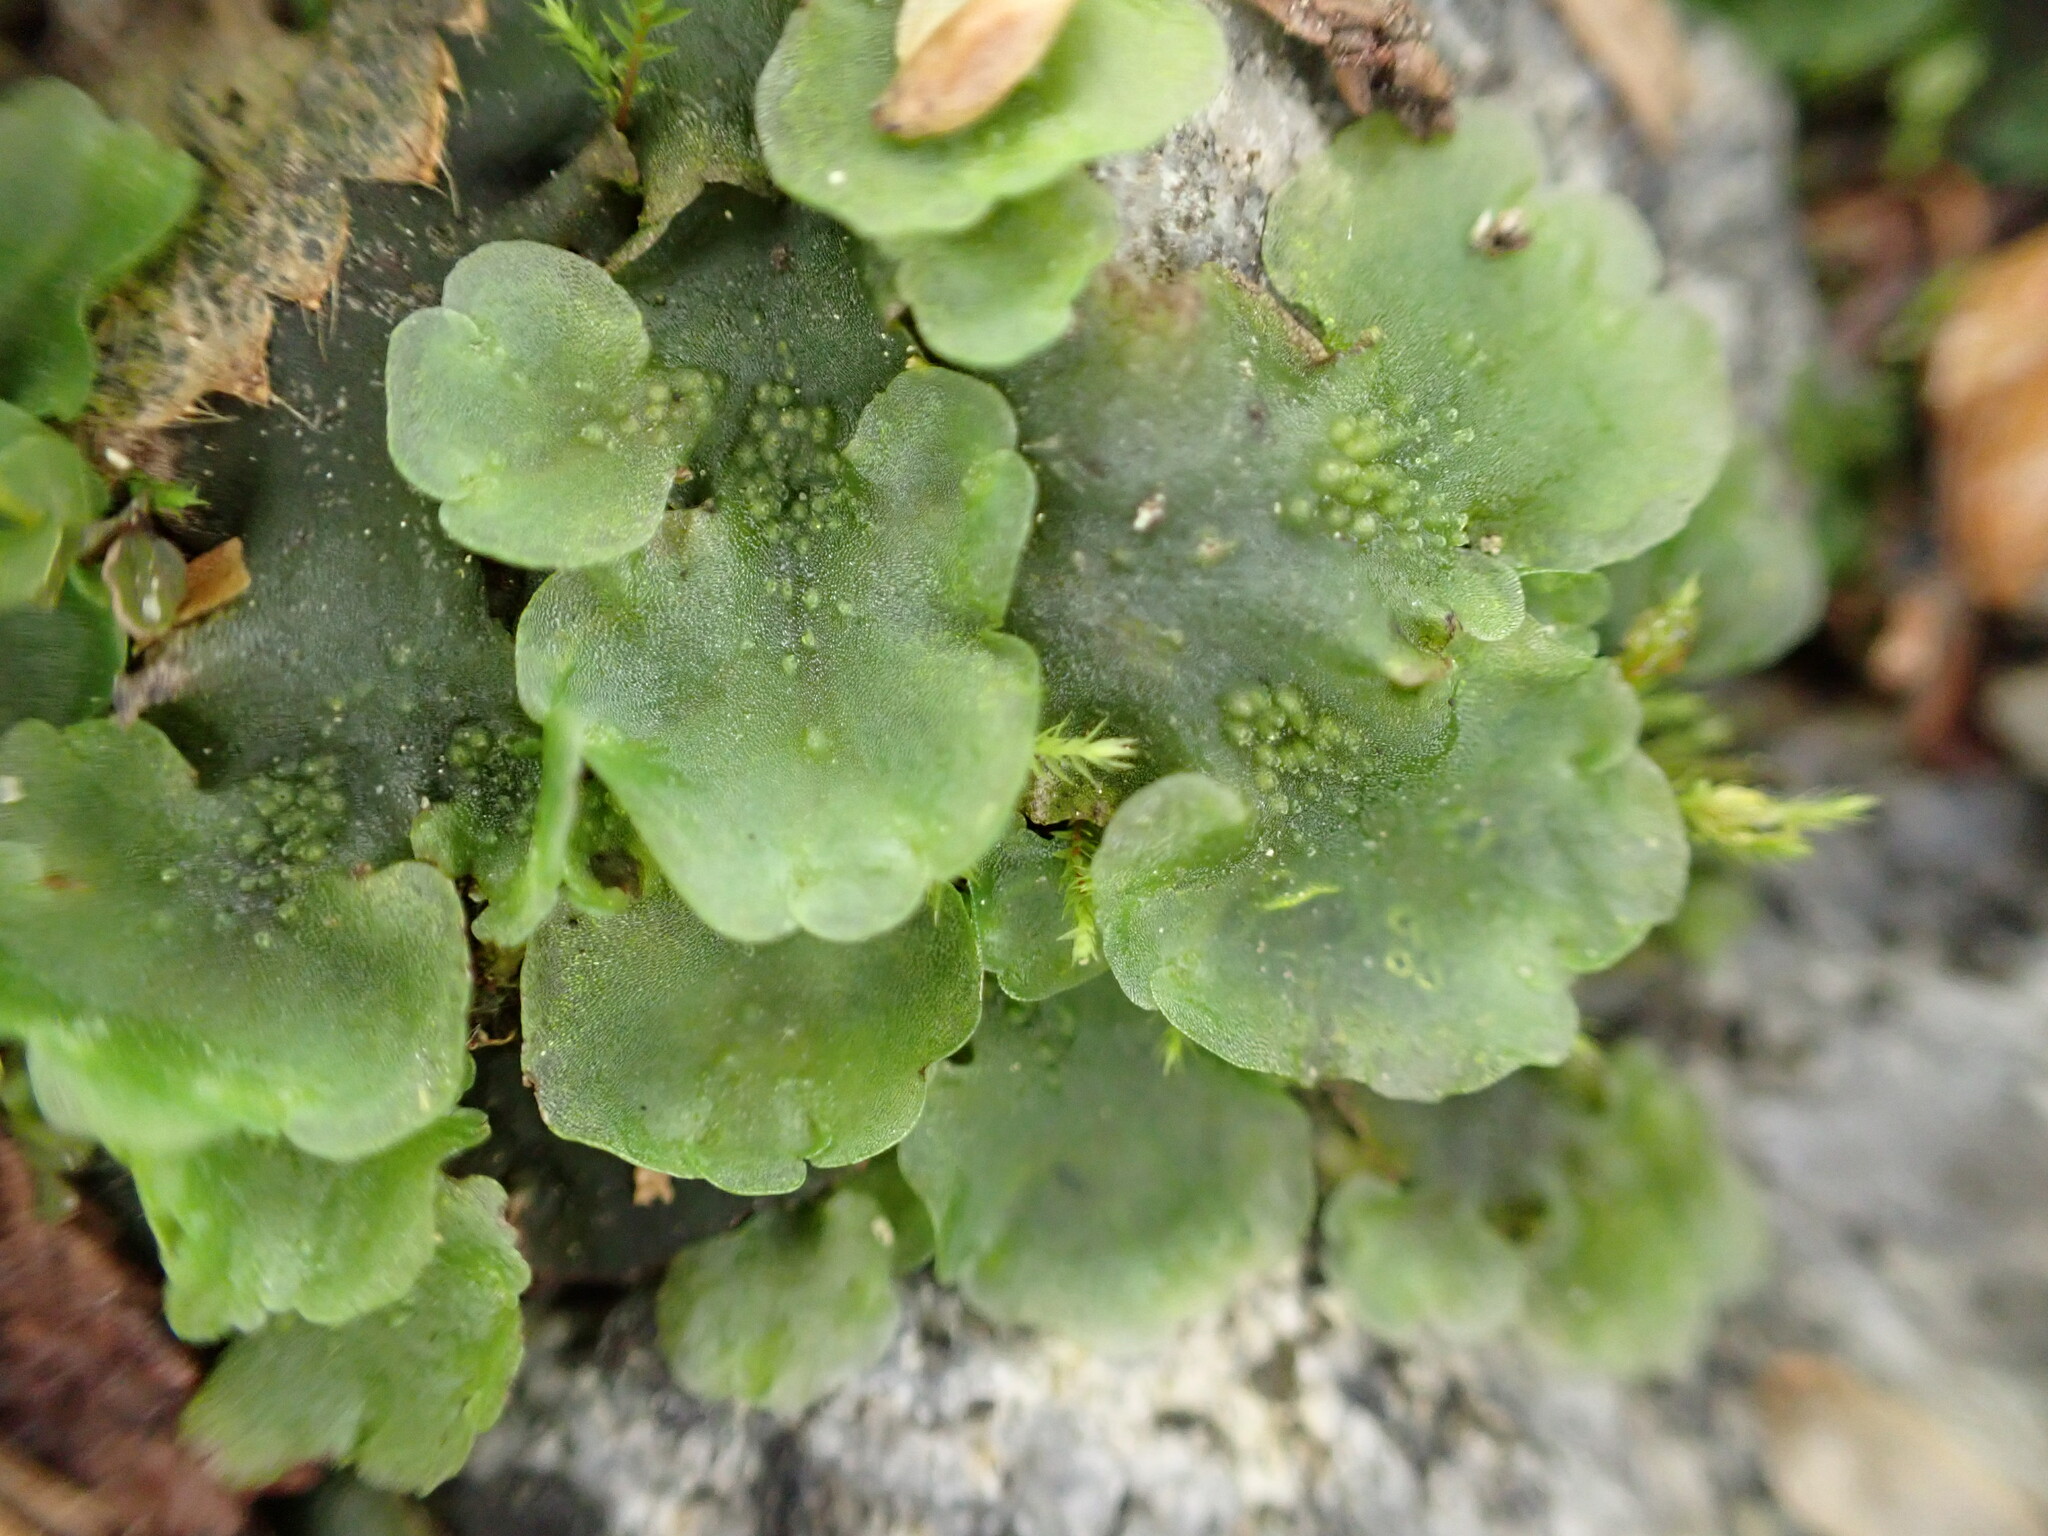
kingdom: Plantae
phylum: Marchantiophyta
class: Jungermanniopsida
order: Pelliales
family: Pelliaceae
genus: Pellia
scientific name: Pellia neesiana
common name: Nees  pellia
